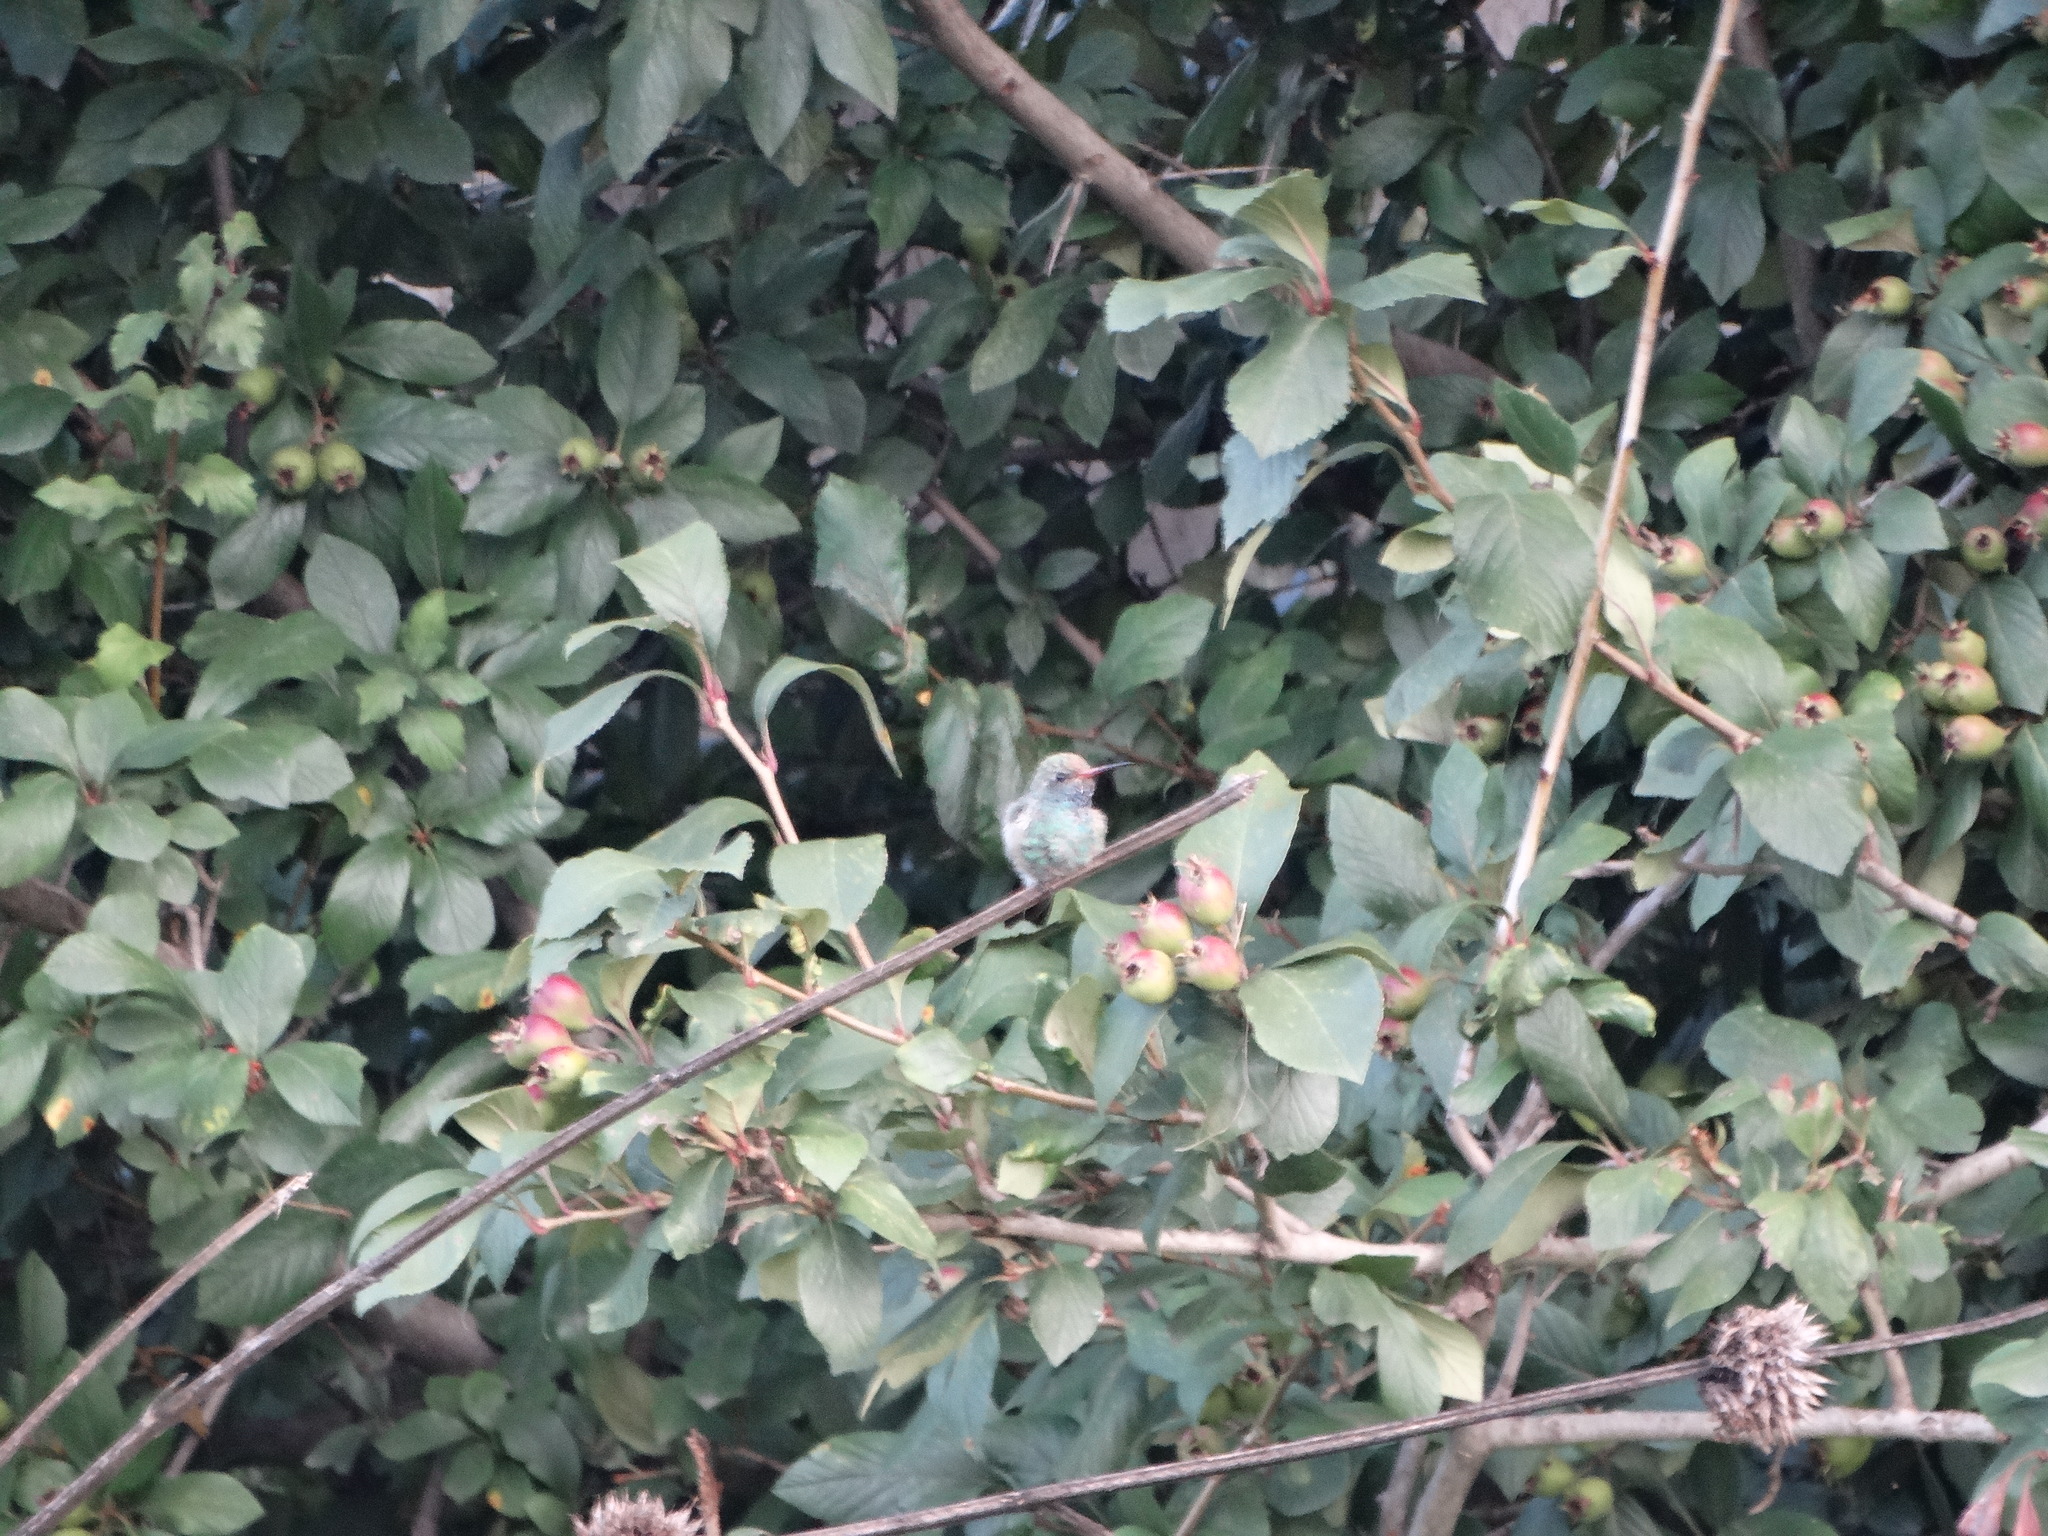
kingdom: Animalia
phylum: Chordata
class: Aves
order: Apodiformes
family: Trochilidae
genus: Cynanthus
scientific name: Cynanthus latirostris
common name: Broad-billed hummingbird
